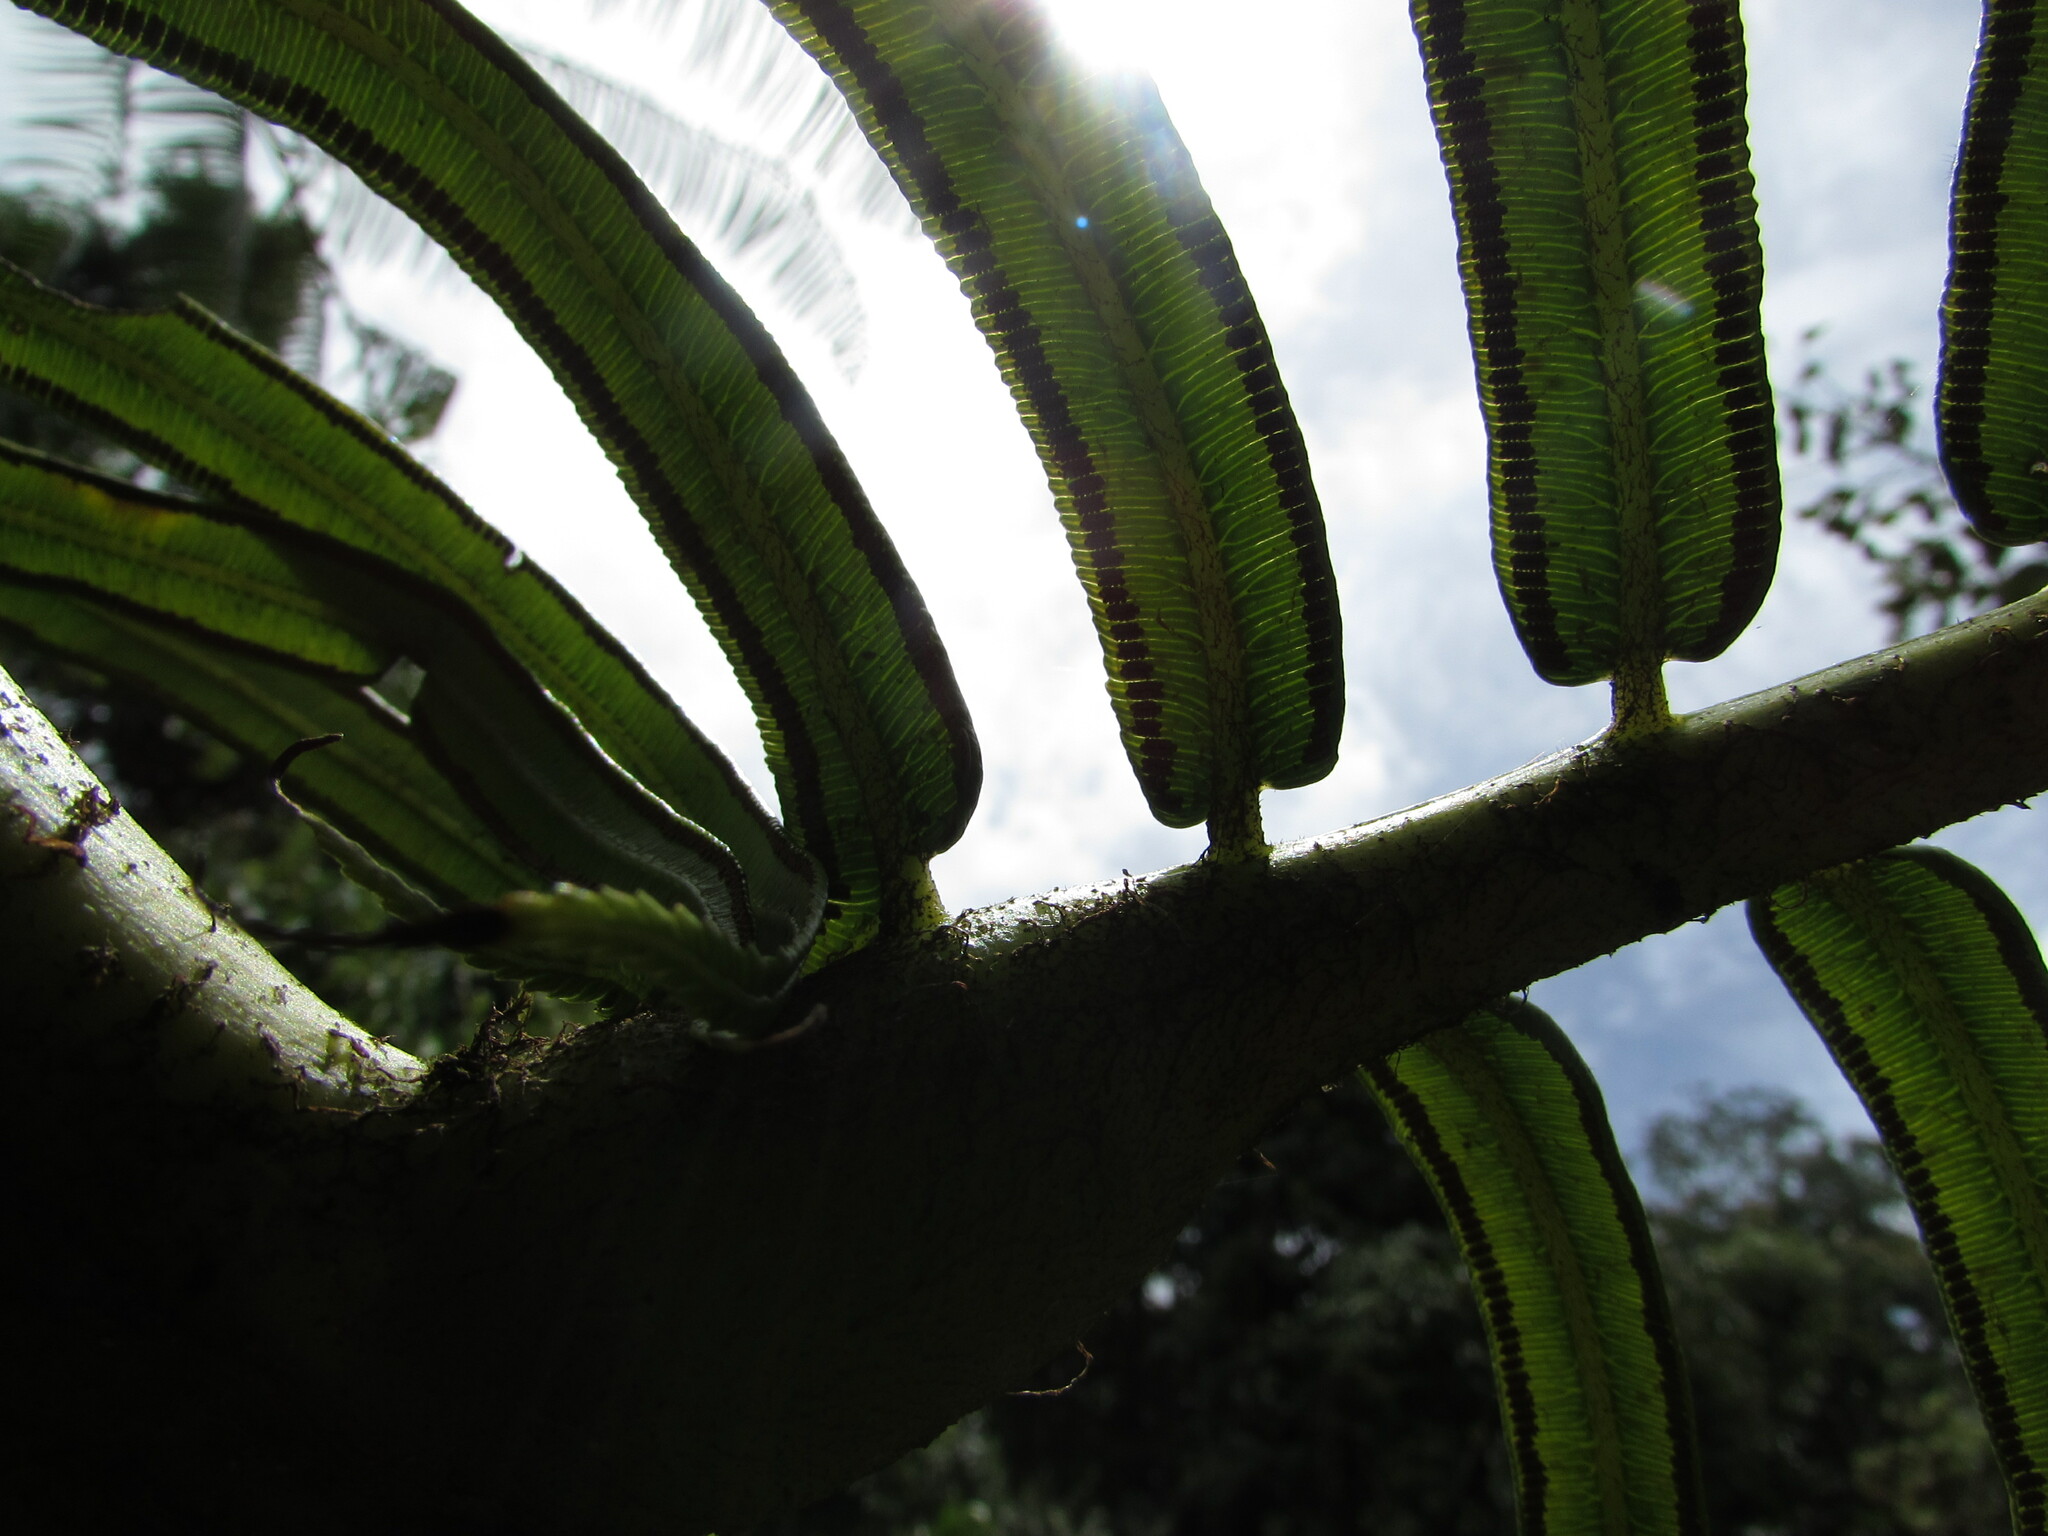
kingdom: Plantae
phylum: Tracheophyta
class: Polypodiopsida
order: Marattiales
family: Marattiaceae
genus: Angiopteris
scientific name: Angiopteris evecta
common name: Mule's-foot fern
